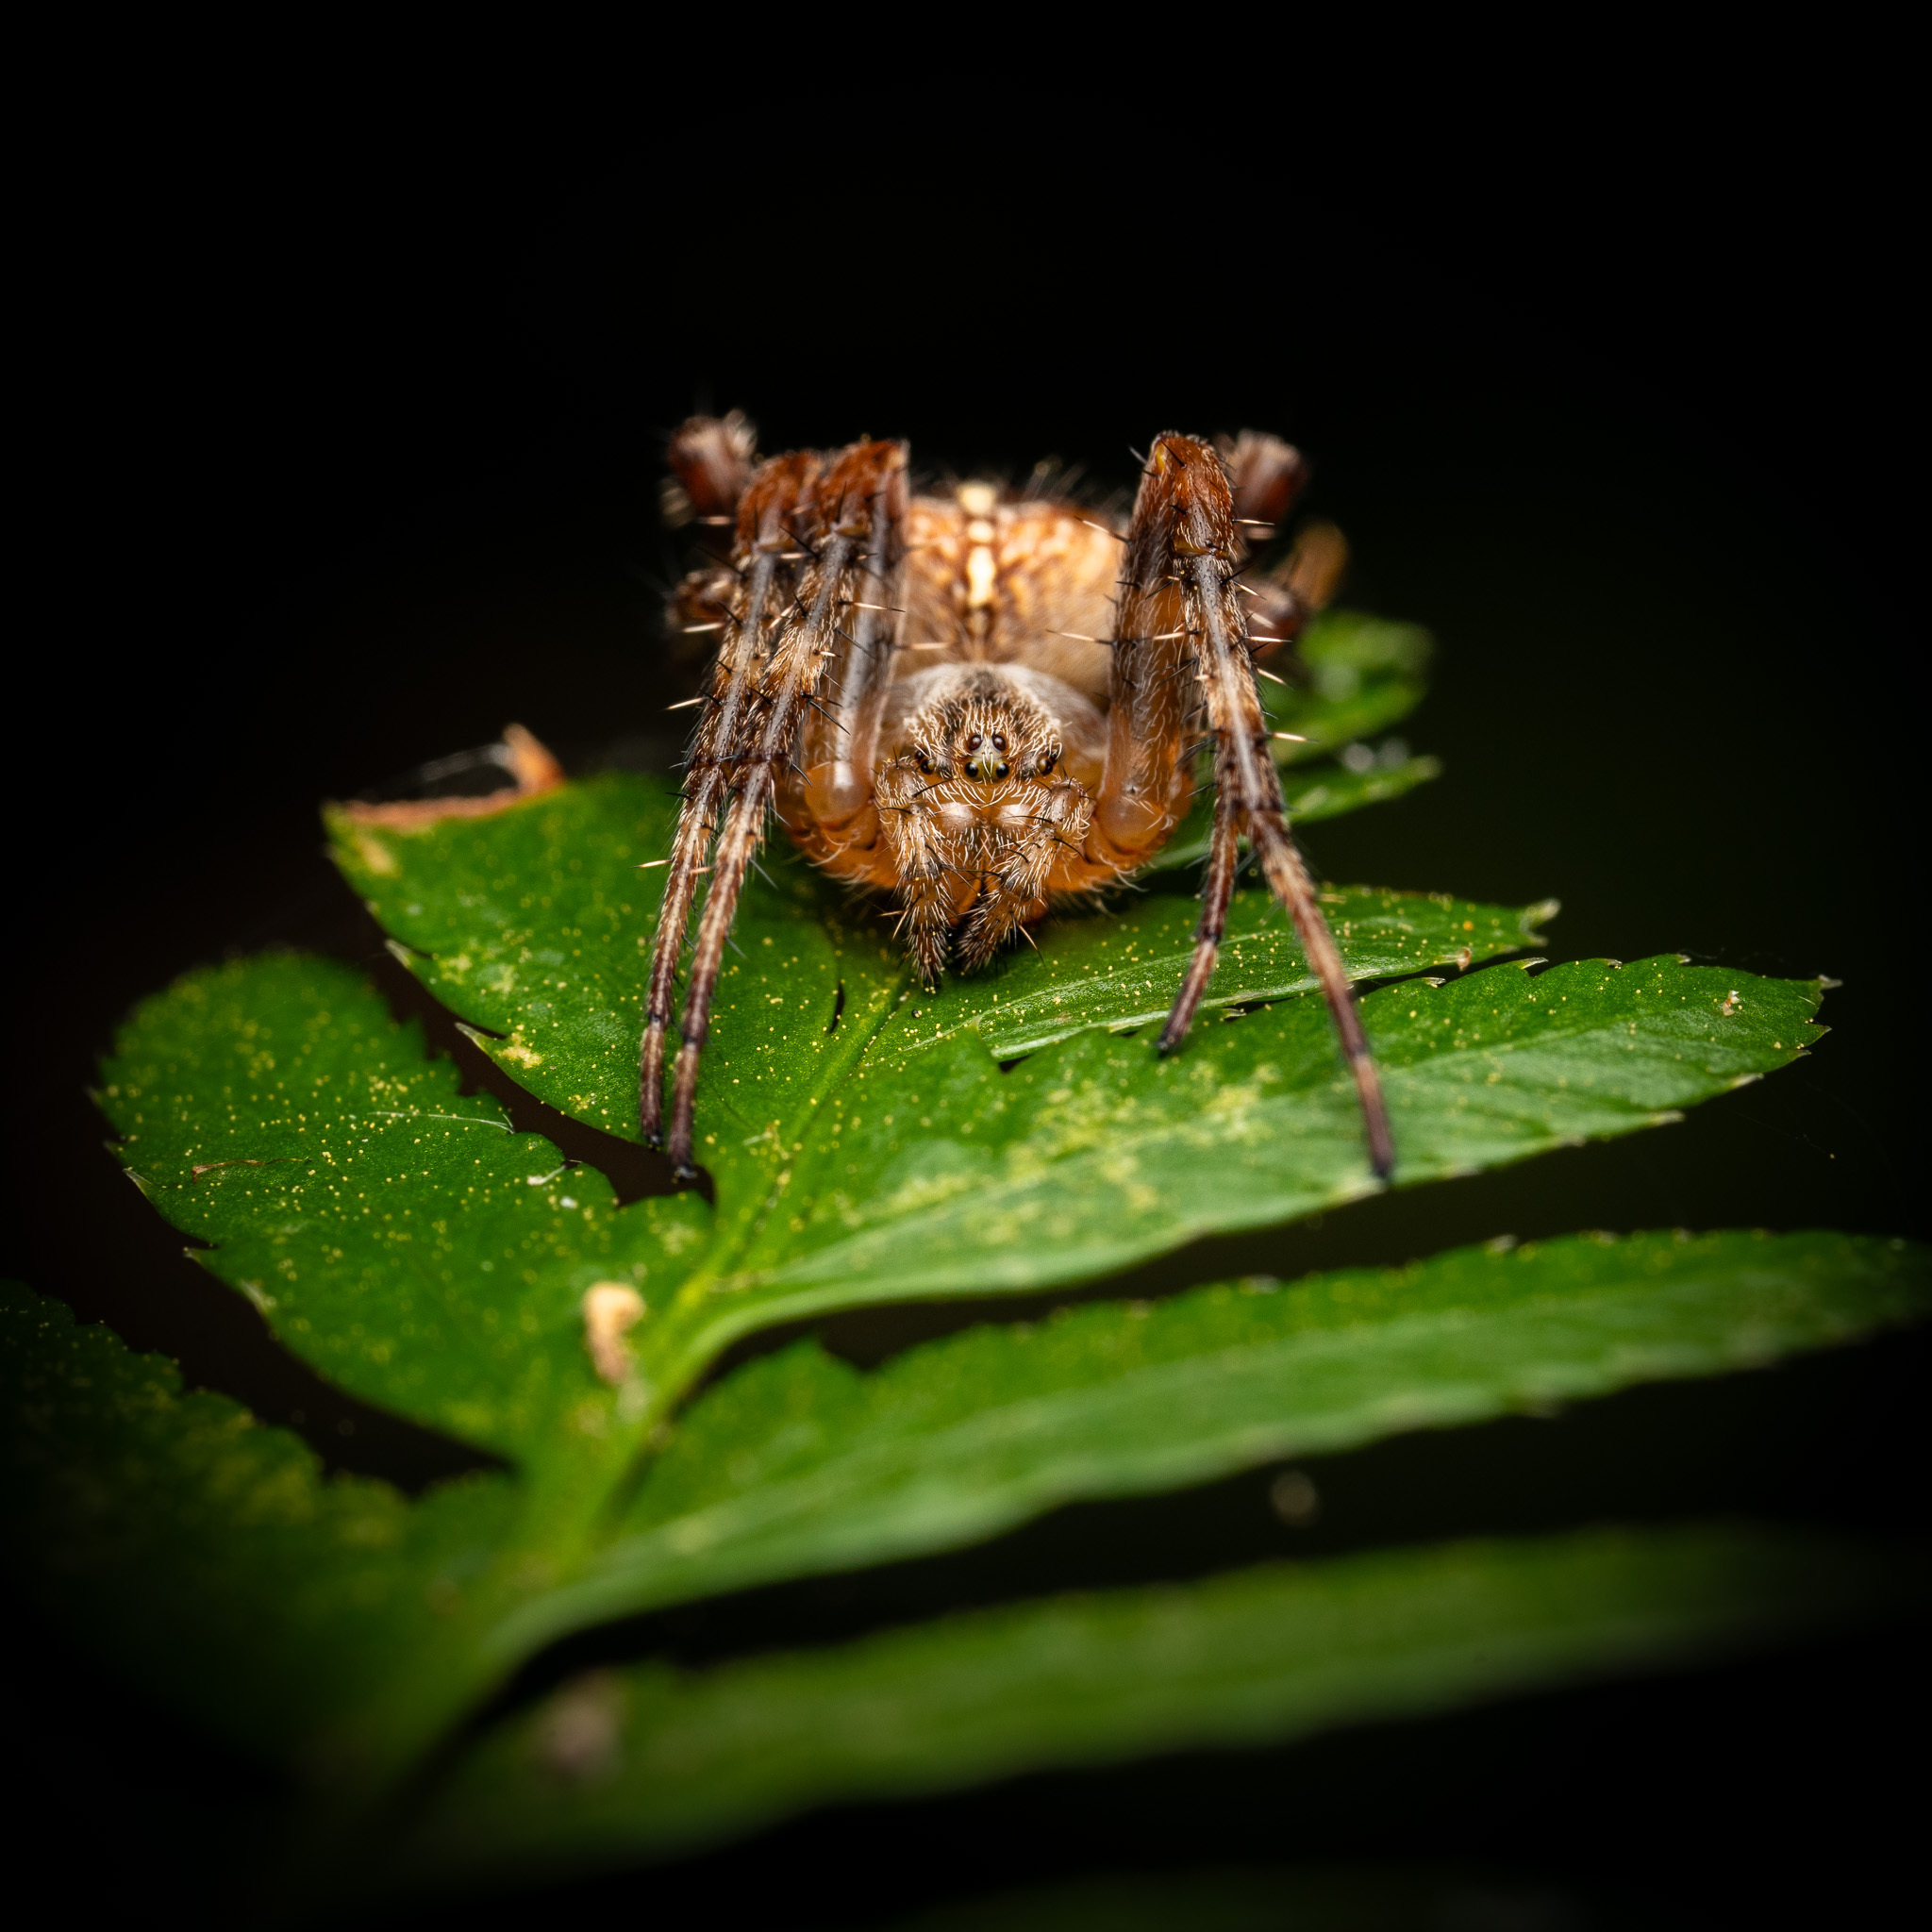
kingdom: Animalia
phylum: Arthropoda
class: Arachnida
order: Araneae
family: Araneidae
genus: Araneus
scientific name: Araneus diadematus
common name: Cross orbweaver
